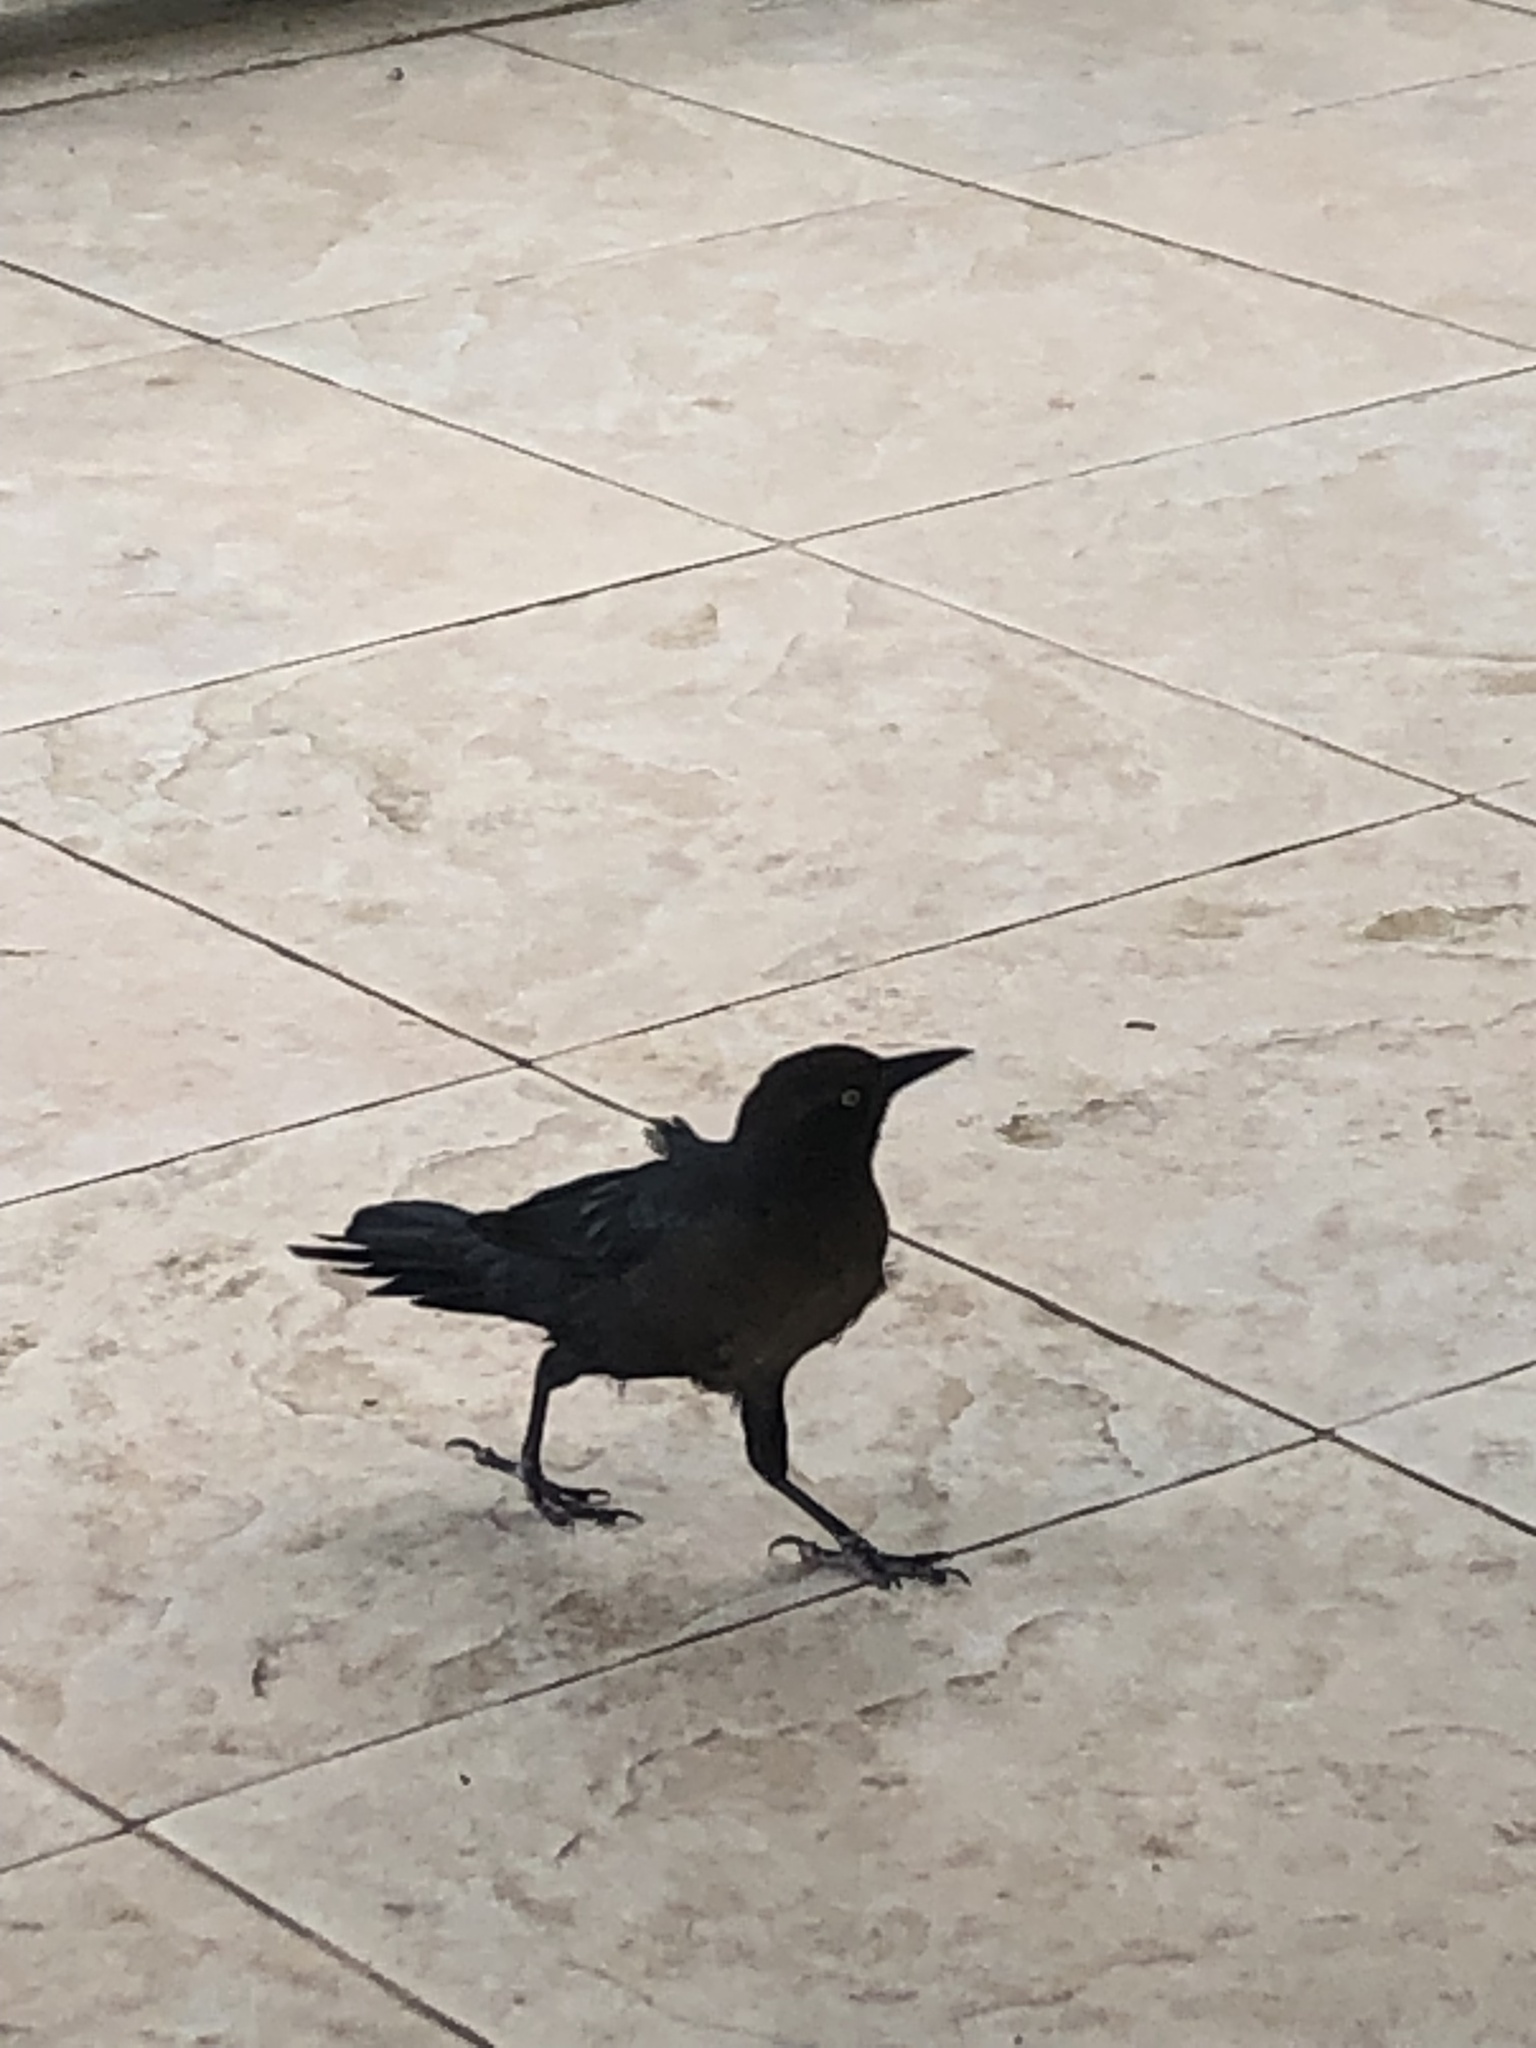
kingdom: Animalia
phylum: Chordata
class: Aves
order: Passeriformes
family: Icteridae
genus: Quiscalus
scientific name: Quiscalus mexicanus
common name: Great-tailed grackle
